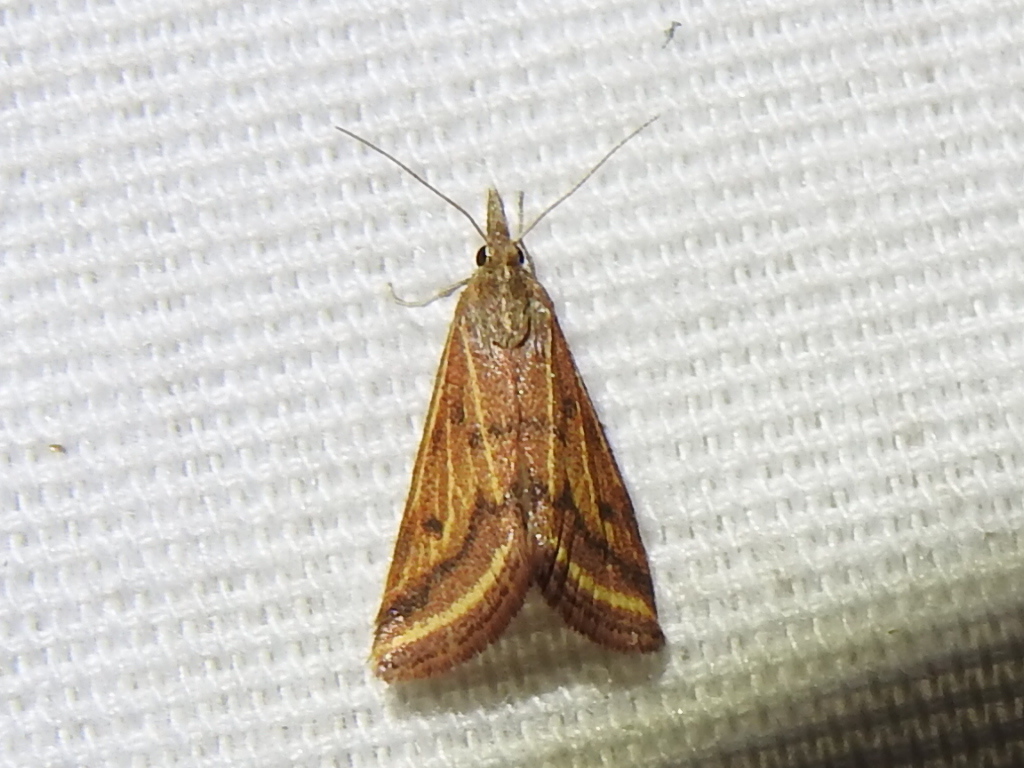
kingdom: Animalia
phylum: Arthropoda
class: Insecta
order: Lepidoptera
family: Crambidae
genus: Microtheoris
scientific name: Microtheoris ophionalis
